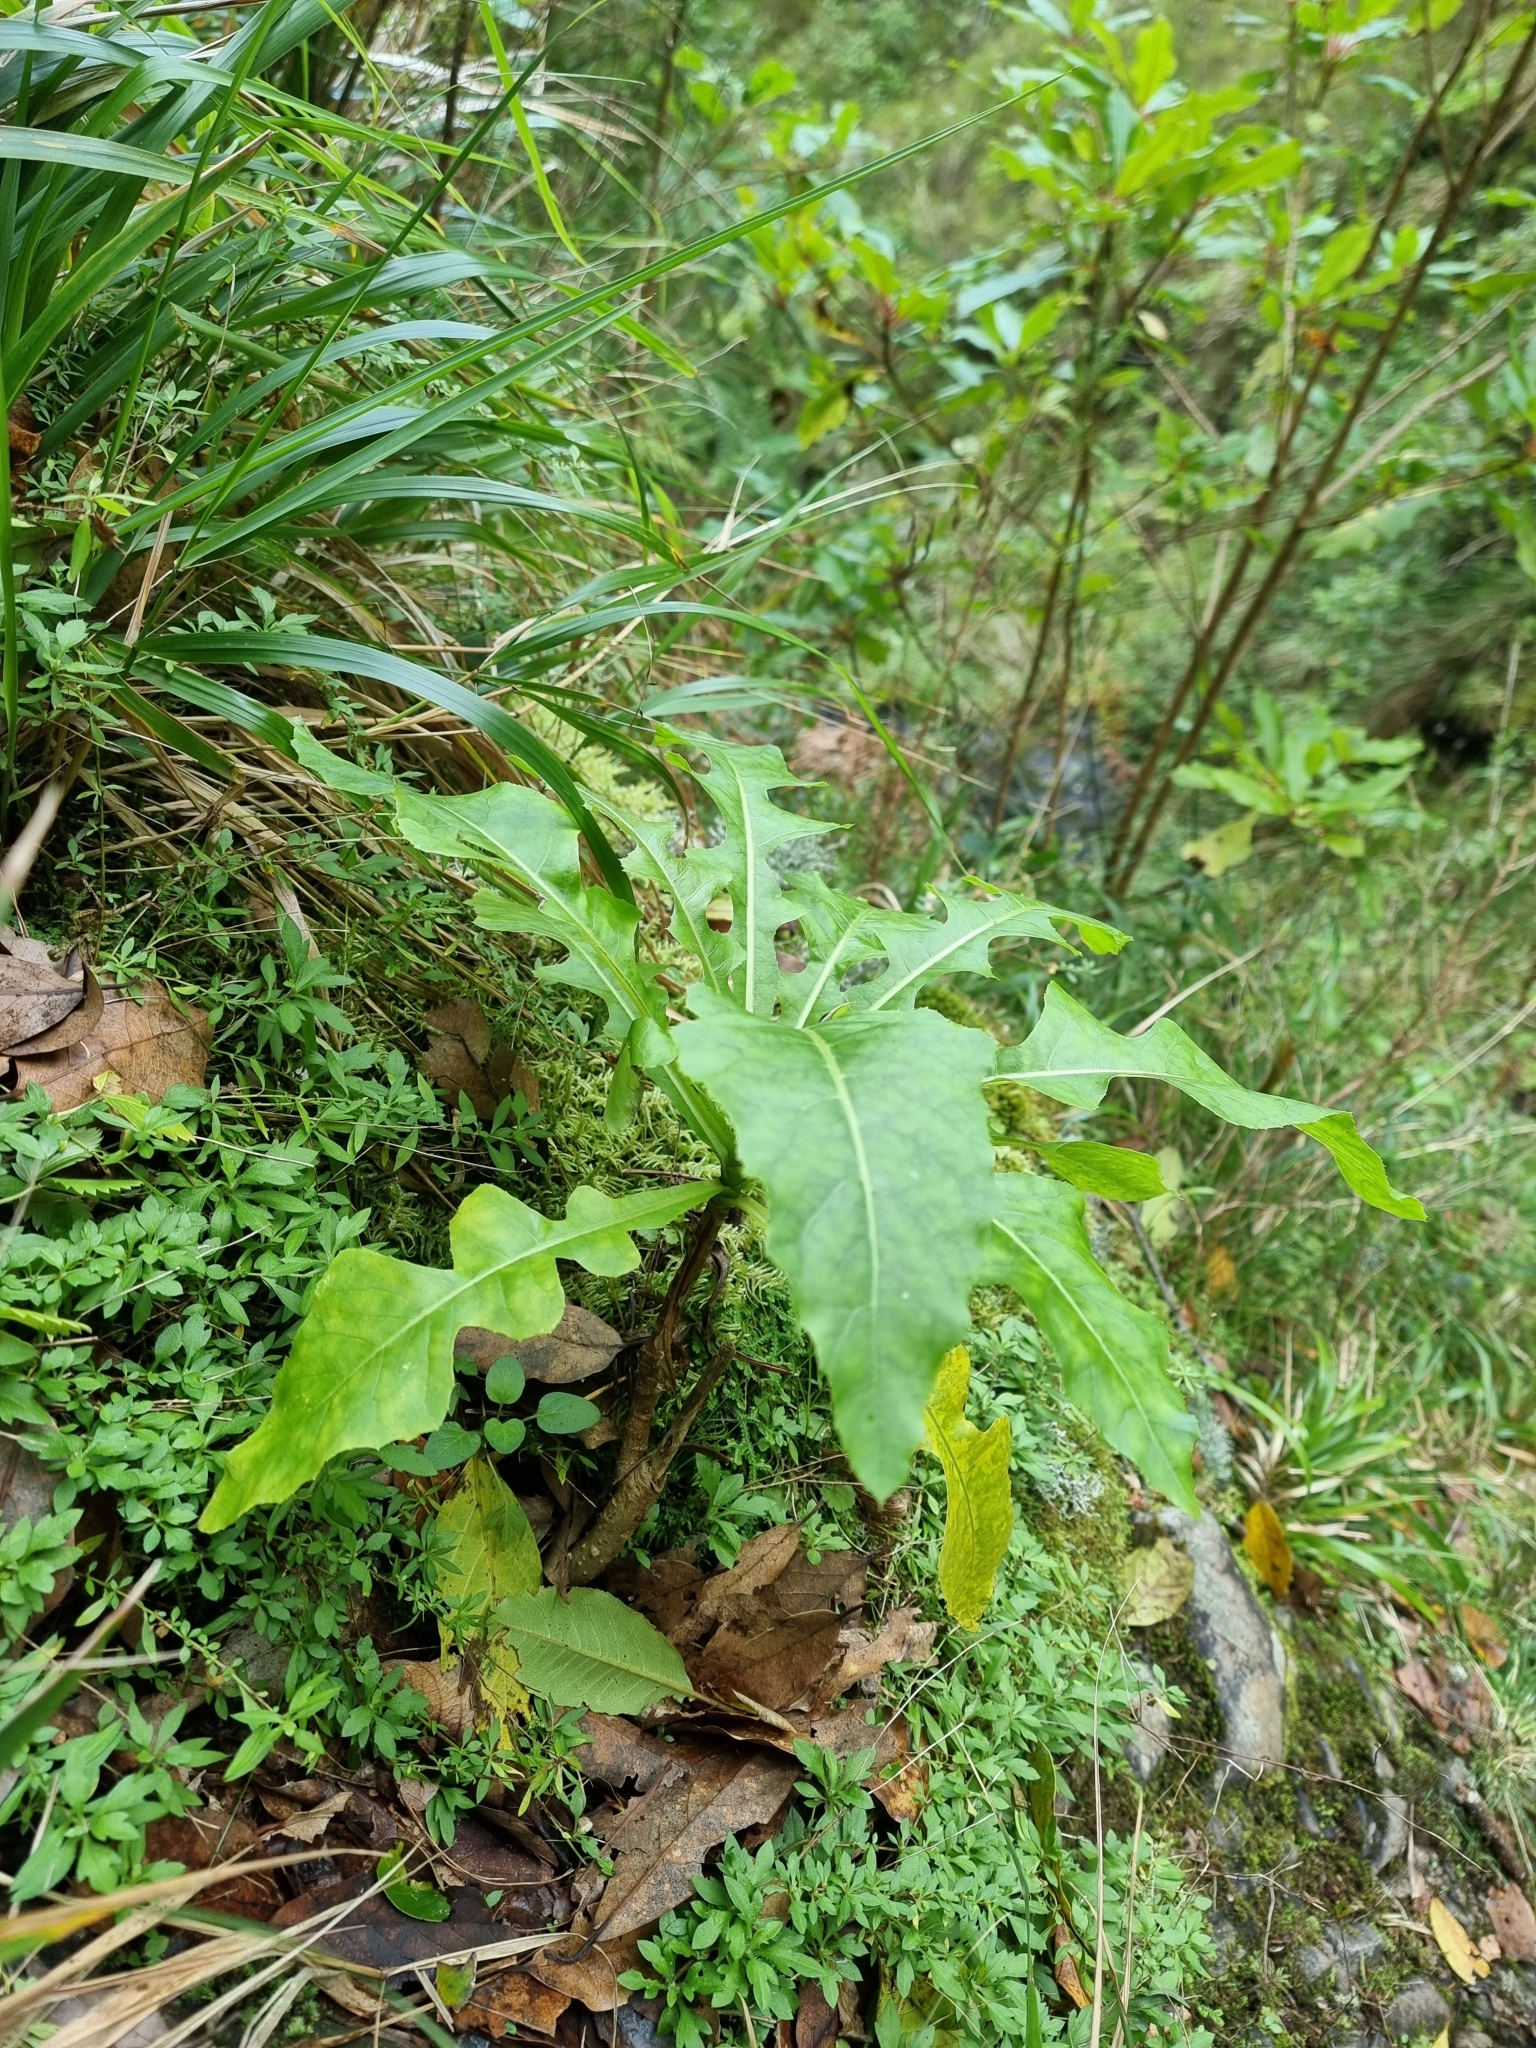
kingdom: Plantae
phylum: Tracheophyta
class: Magnoliopsida
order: Asterales
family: Asteraceae
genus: Sonchus
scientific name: Sonchus fruticosus
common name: Shrubby sow-thistle
